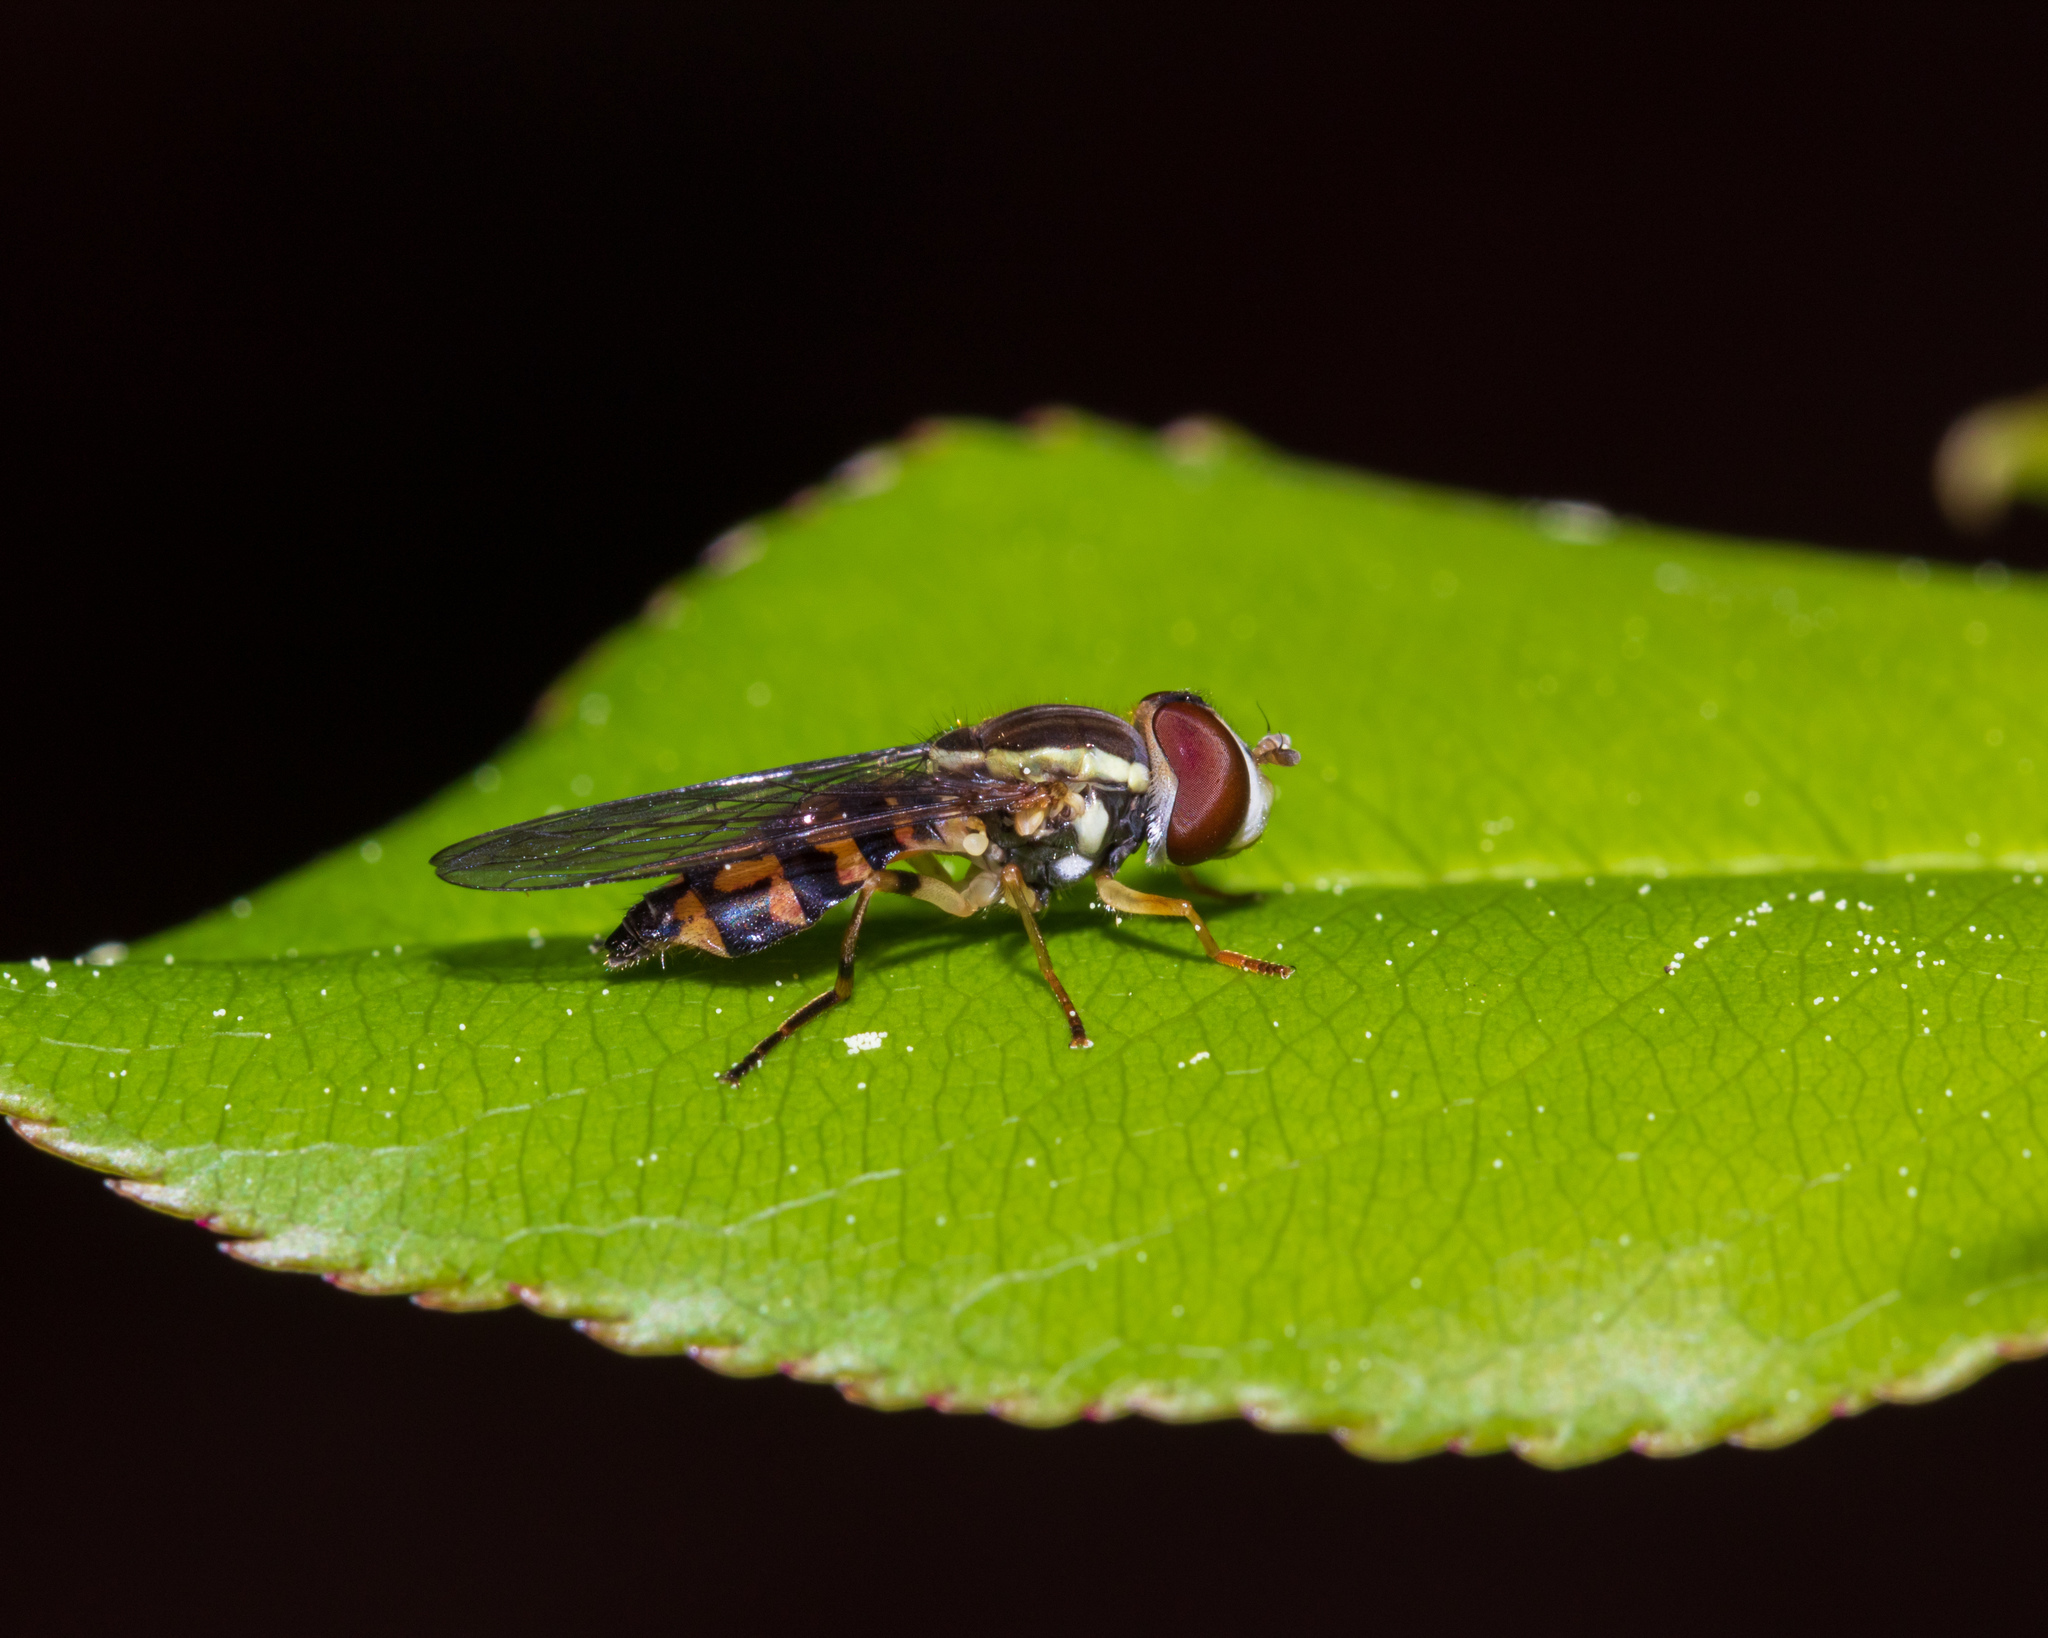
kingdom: Animalia
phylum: Arthropoda
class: Insecta
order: Diptera
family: Syrphidae
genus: Toxomerus
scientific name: Toxomerus geminatus
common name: Eastern calligrapher
